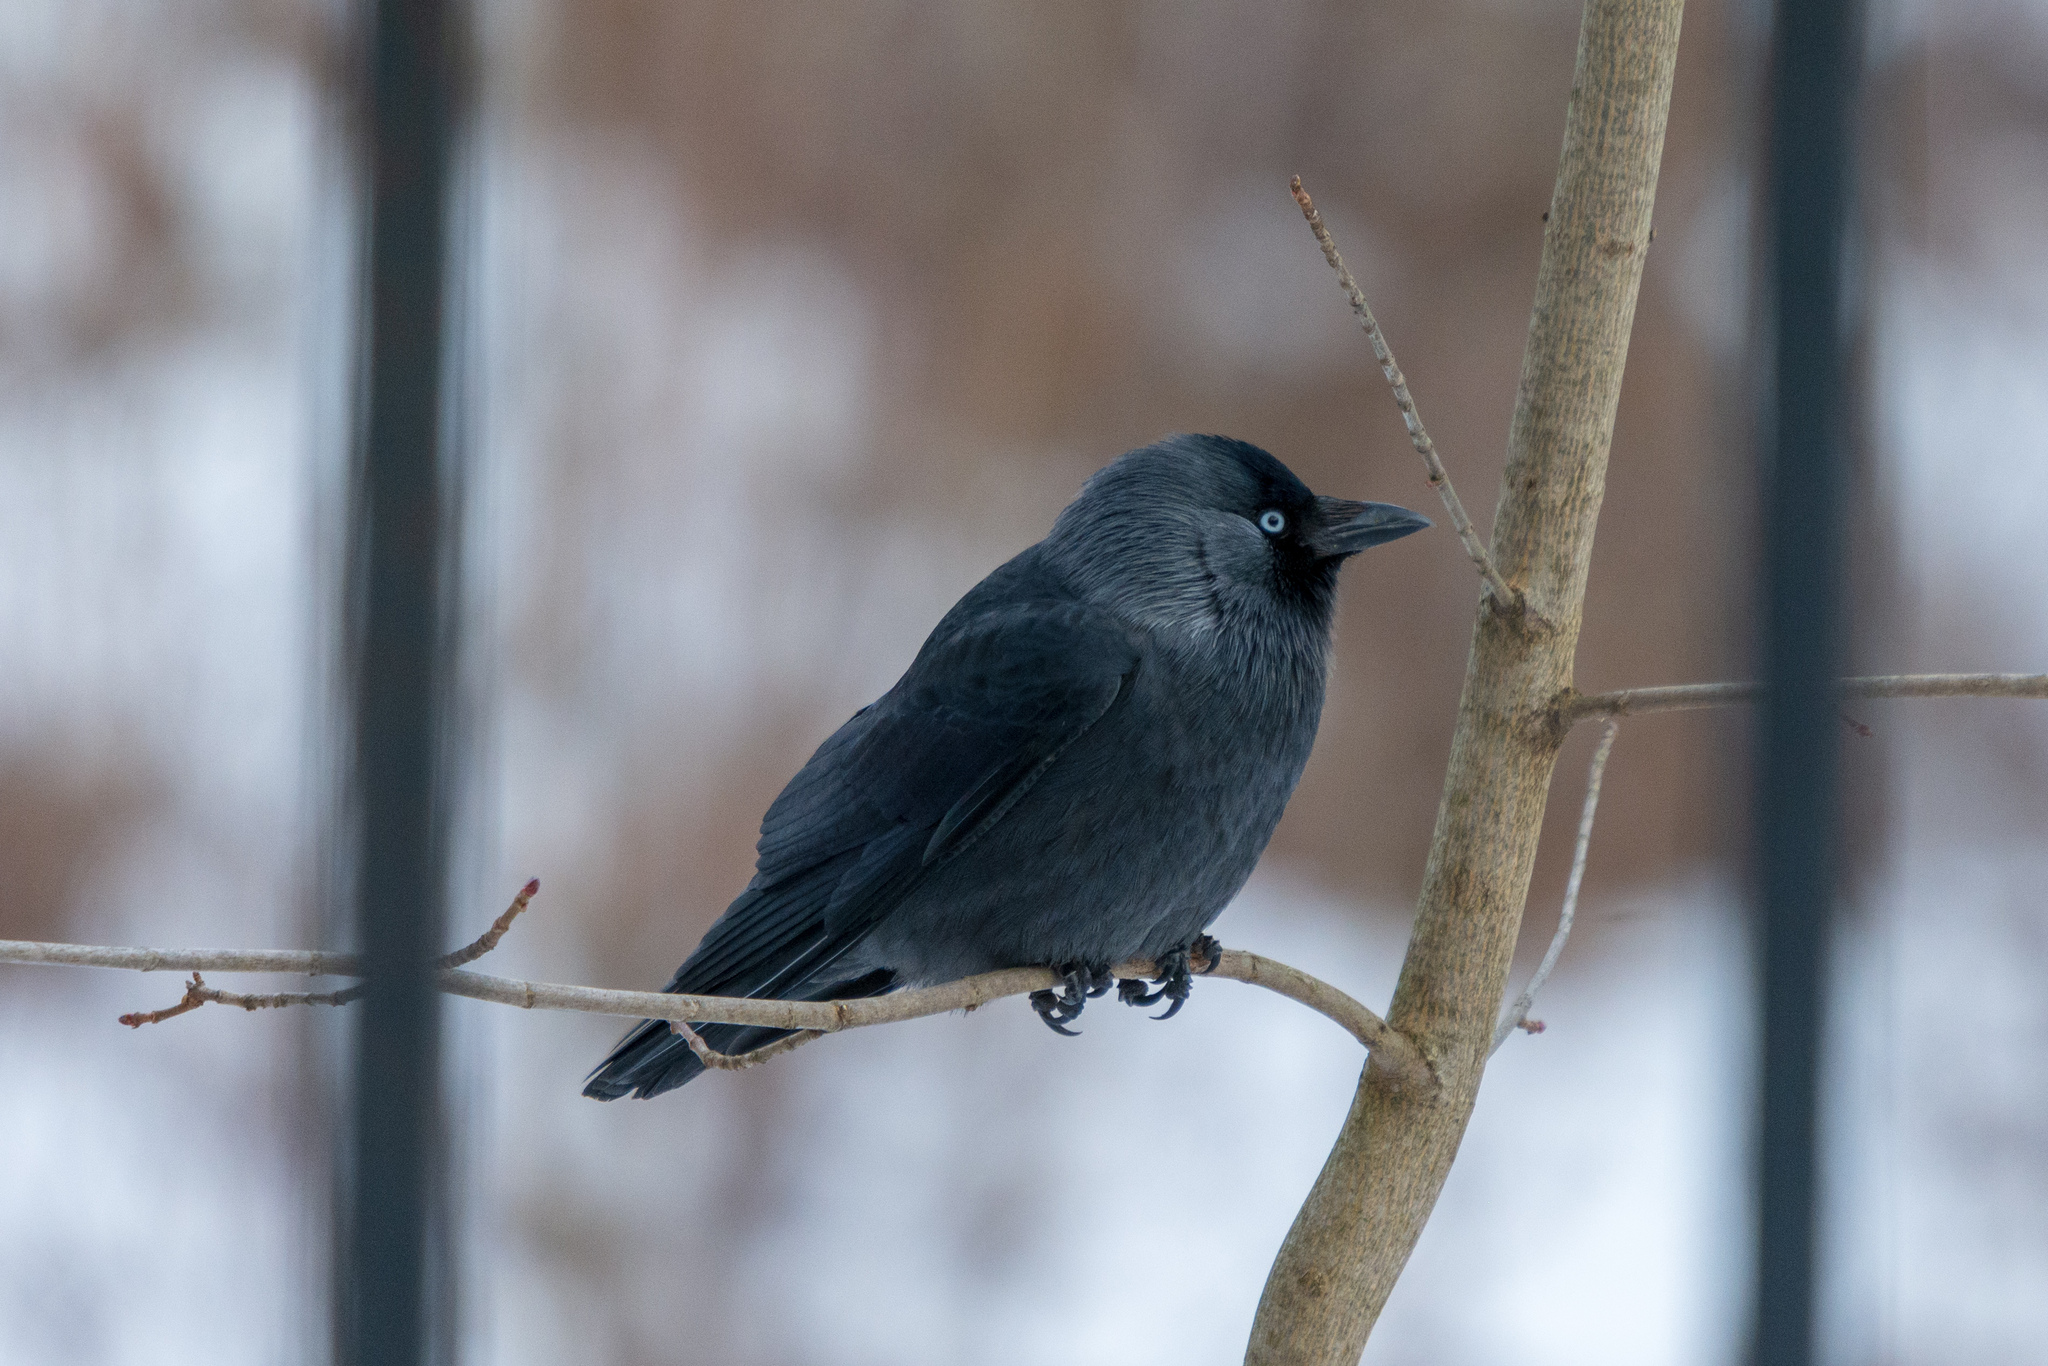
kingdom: Animalia
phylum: Chordata
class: Aves
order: Passeriformes
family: Corvidae
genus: Coloeus
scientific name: Coloeus monedula
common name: Western jackdaw
